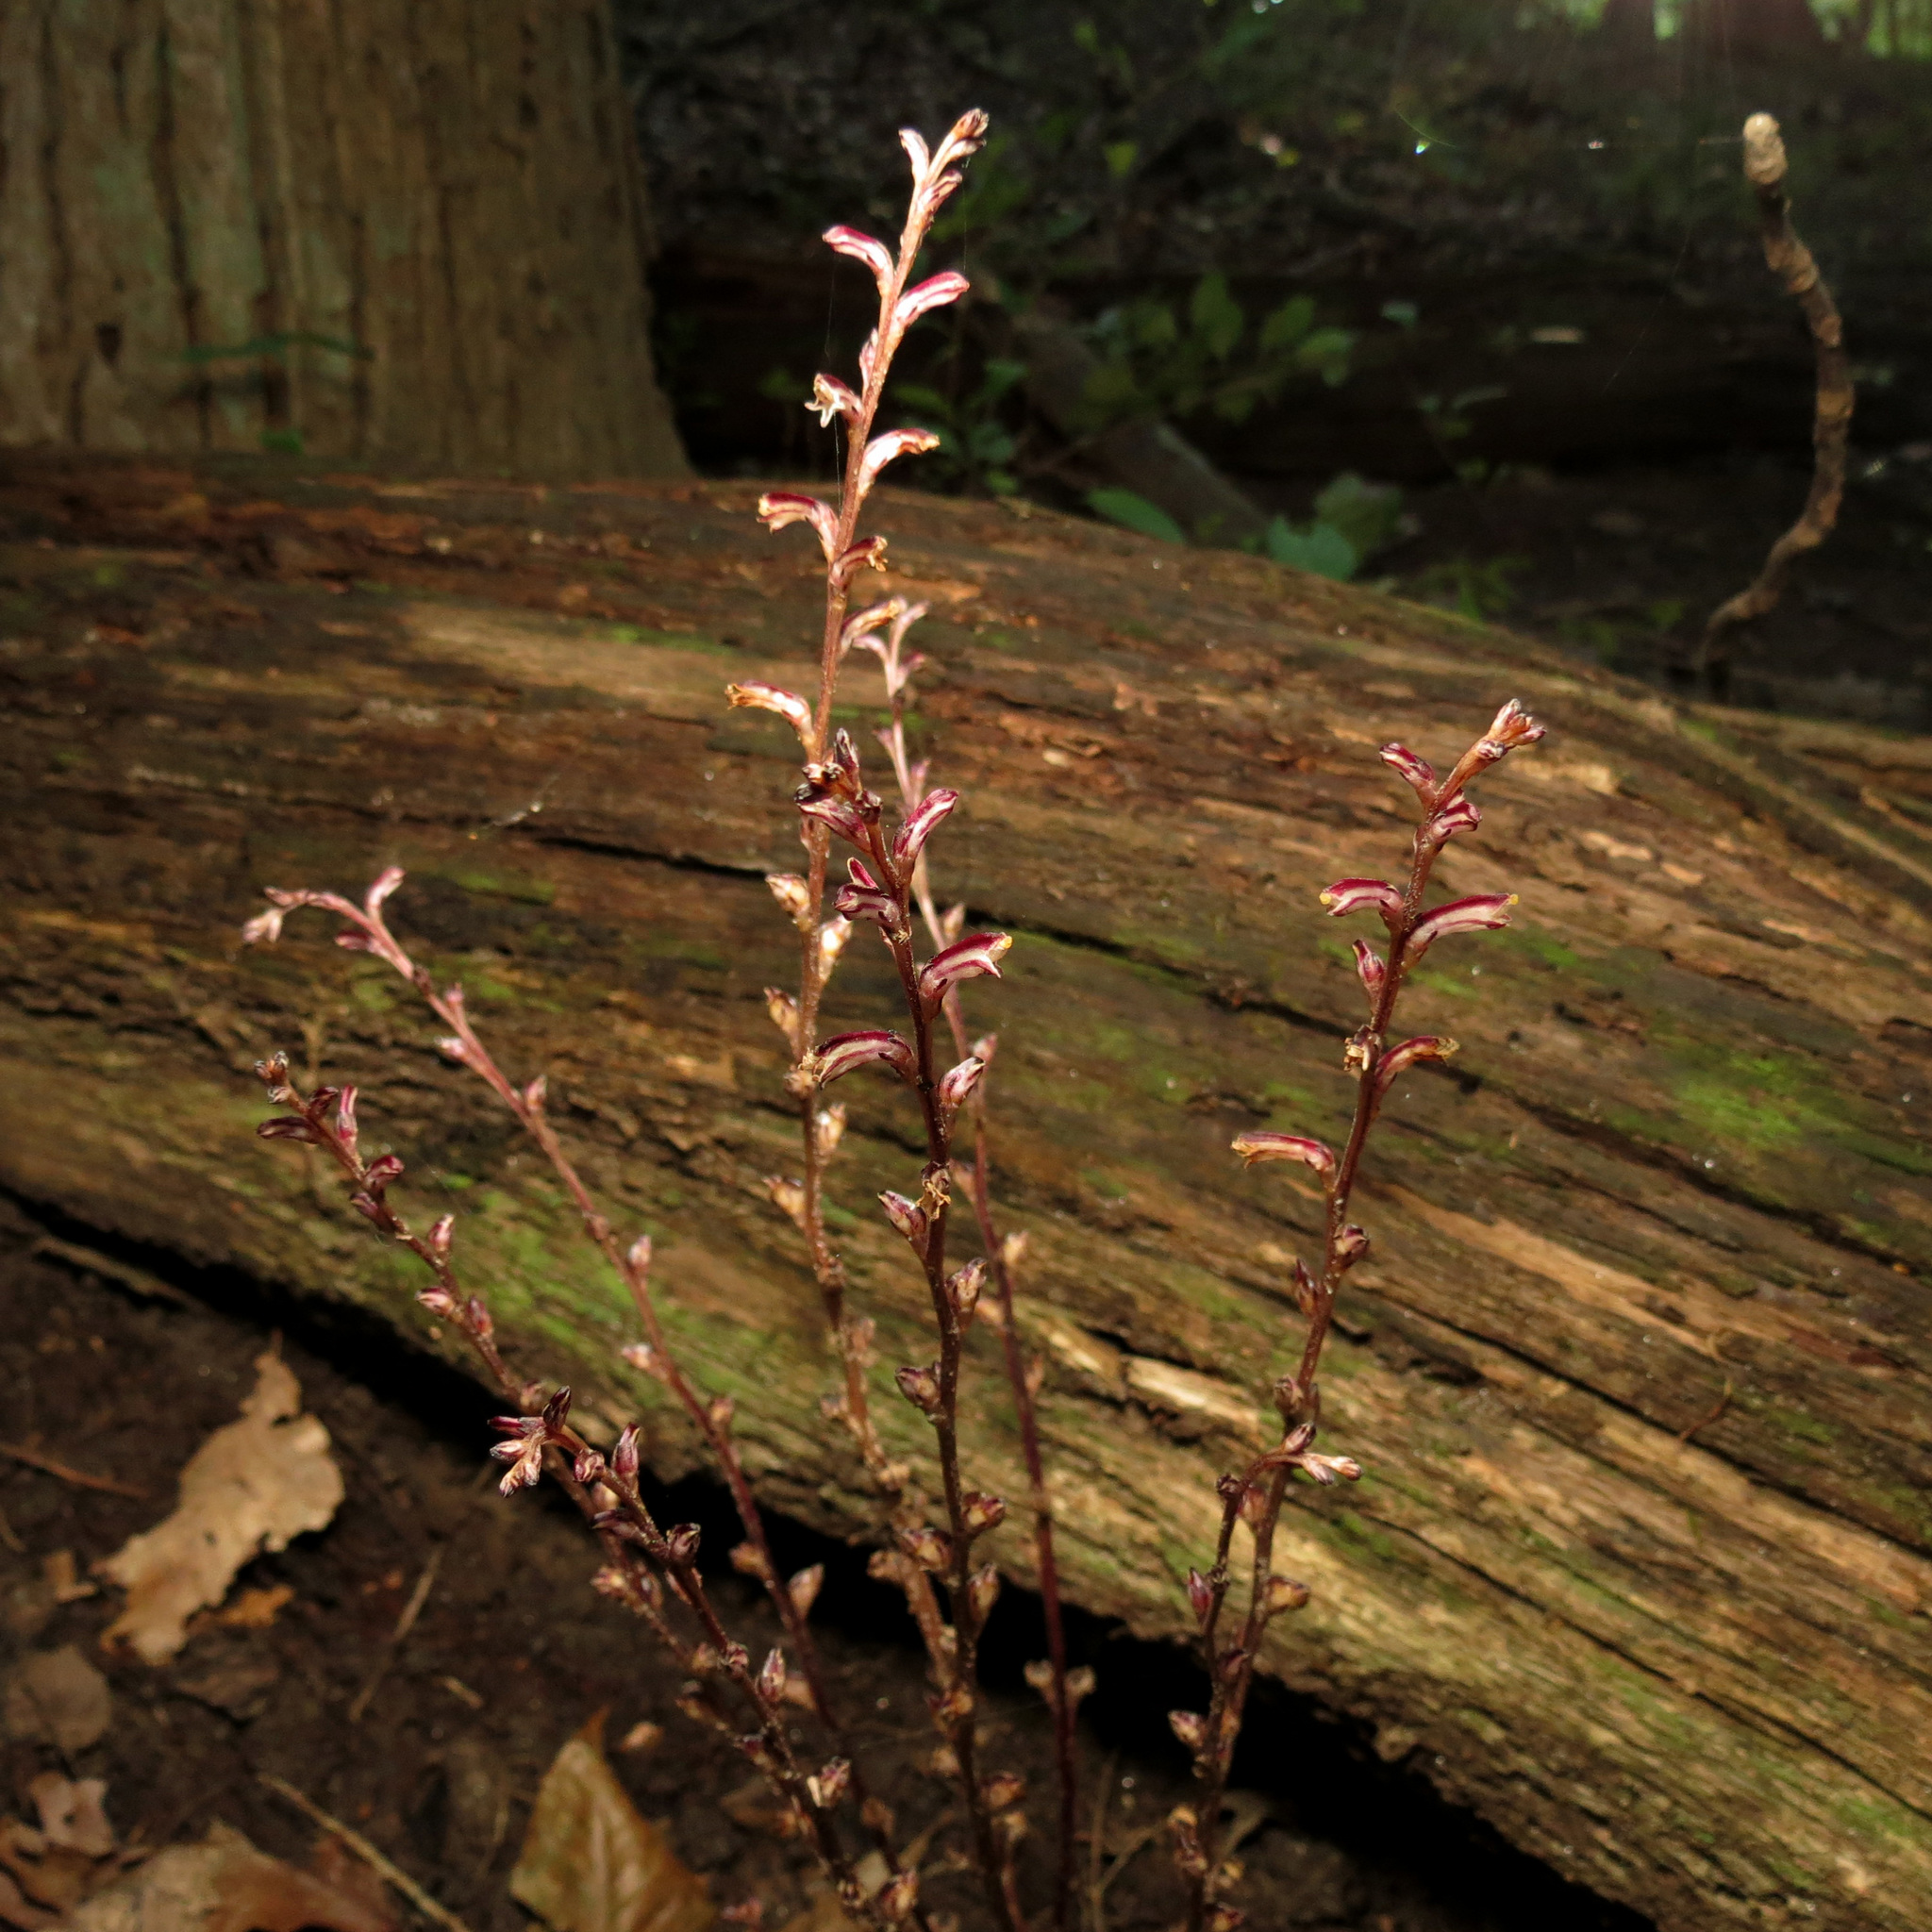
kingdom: Plantae
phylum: Tracheophyta
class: Magnoliopsida
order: Lamiales
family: Orobanchaceae
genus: Epifagus
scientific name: Epifagus virginiana
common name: Beechdrops
